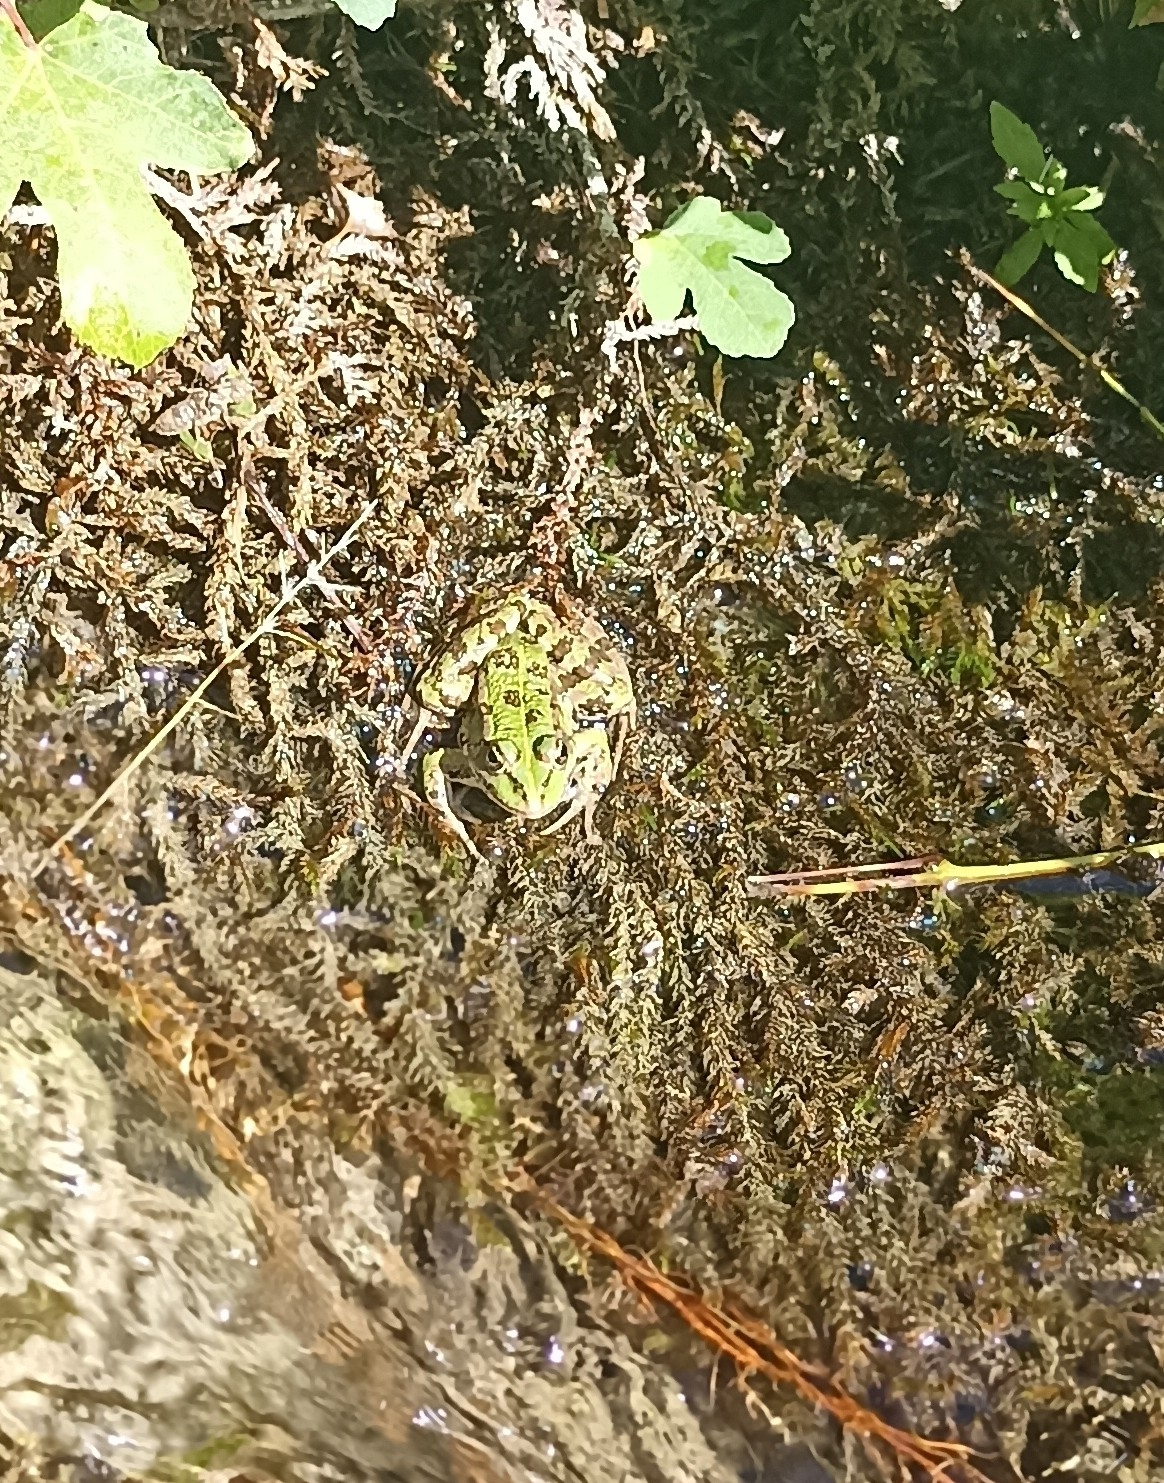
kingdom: Animalia
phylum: Chordata
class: Amphibia
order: Anura
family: Ranidae
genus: Pelophylax
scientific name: Pelophylax ridibundus
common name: Marsh frog
